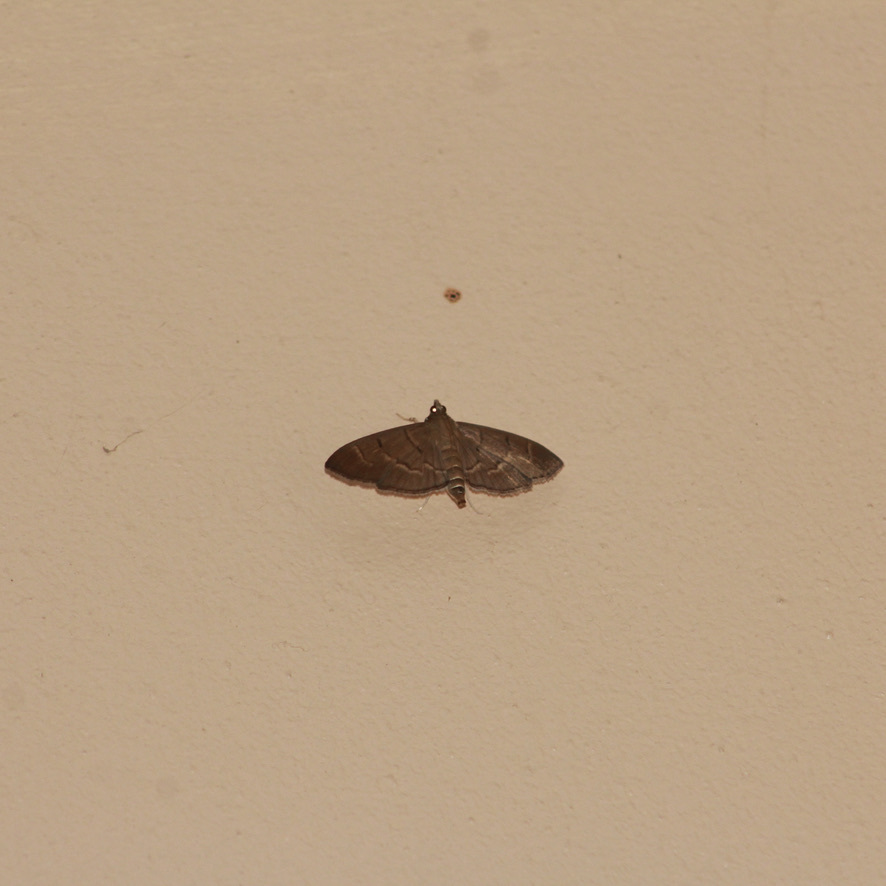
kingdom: Animalia
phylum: Arthropoda
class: Insecta
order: Lepidoptera
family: Crambidae
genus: Herpetogramma
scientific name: Herpetogramma semilaniata
